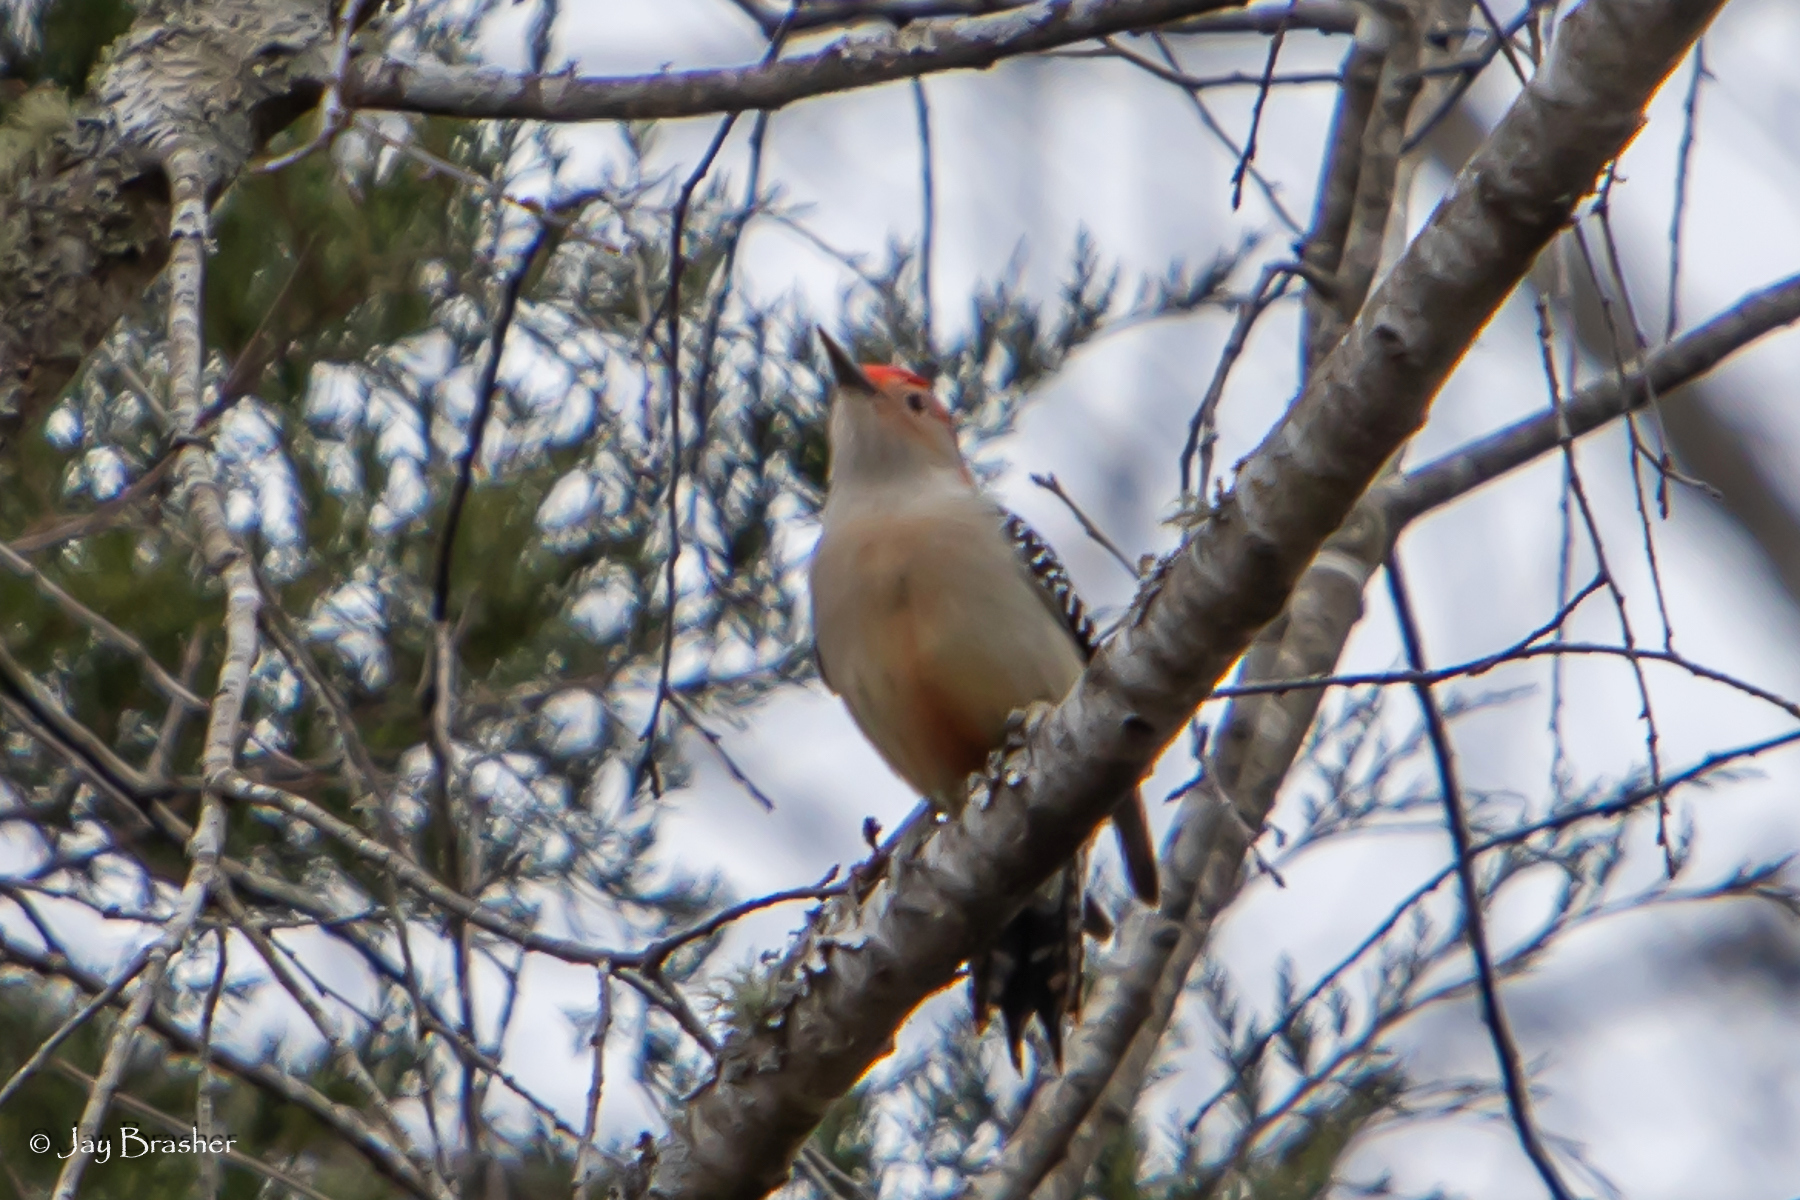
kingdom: Animalia
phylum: Chordata
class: Aves
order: Piciformes
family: Picidae
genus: Melanerpes
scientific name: Melanerpes carolinus
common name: Red-bellied woodpecker
